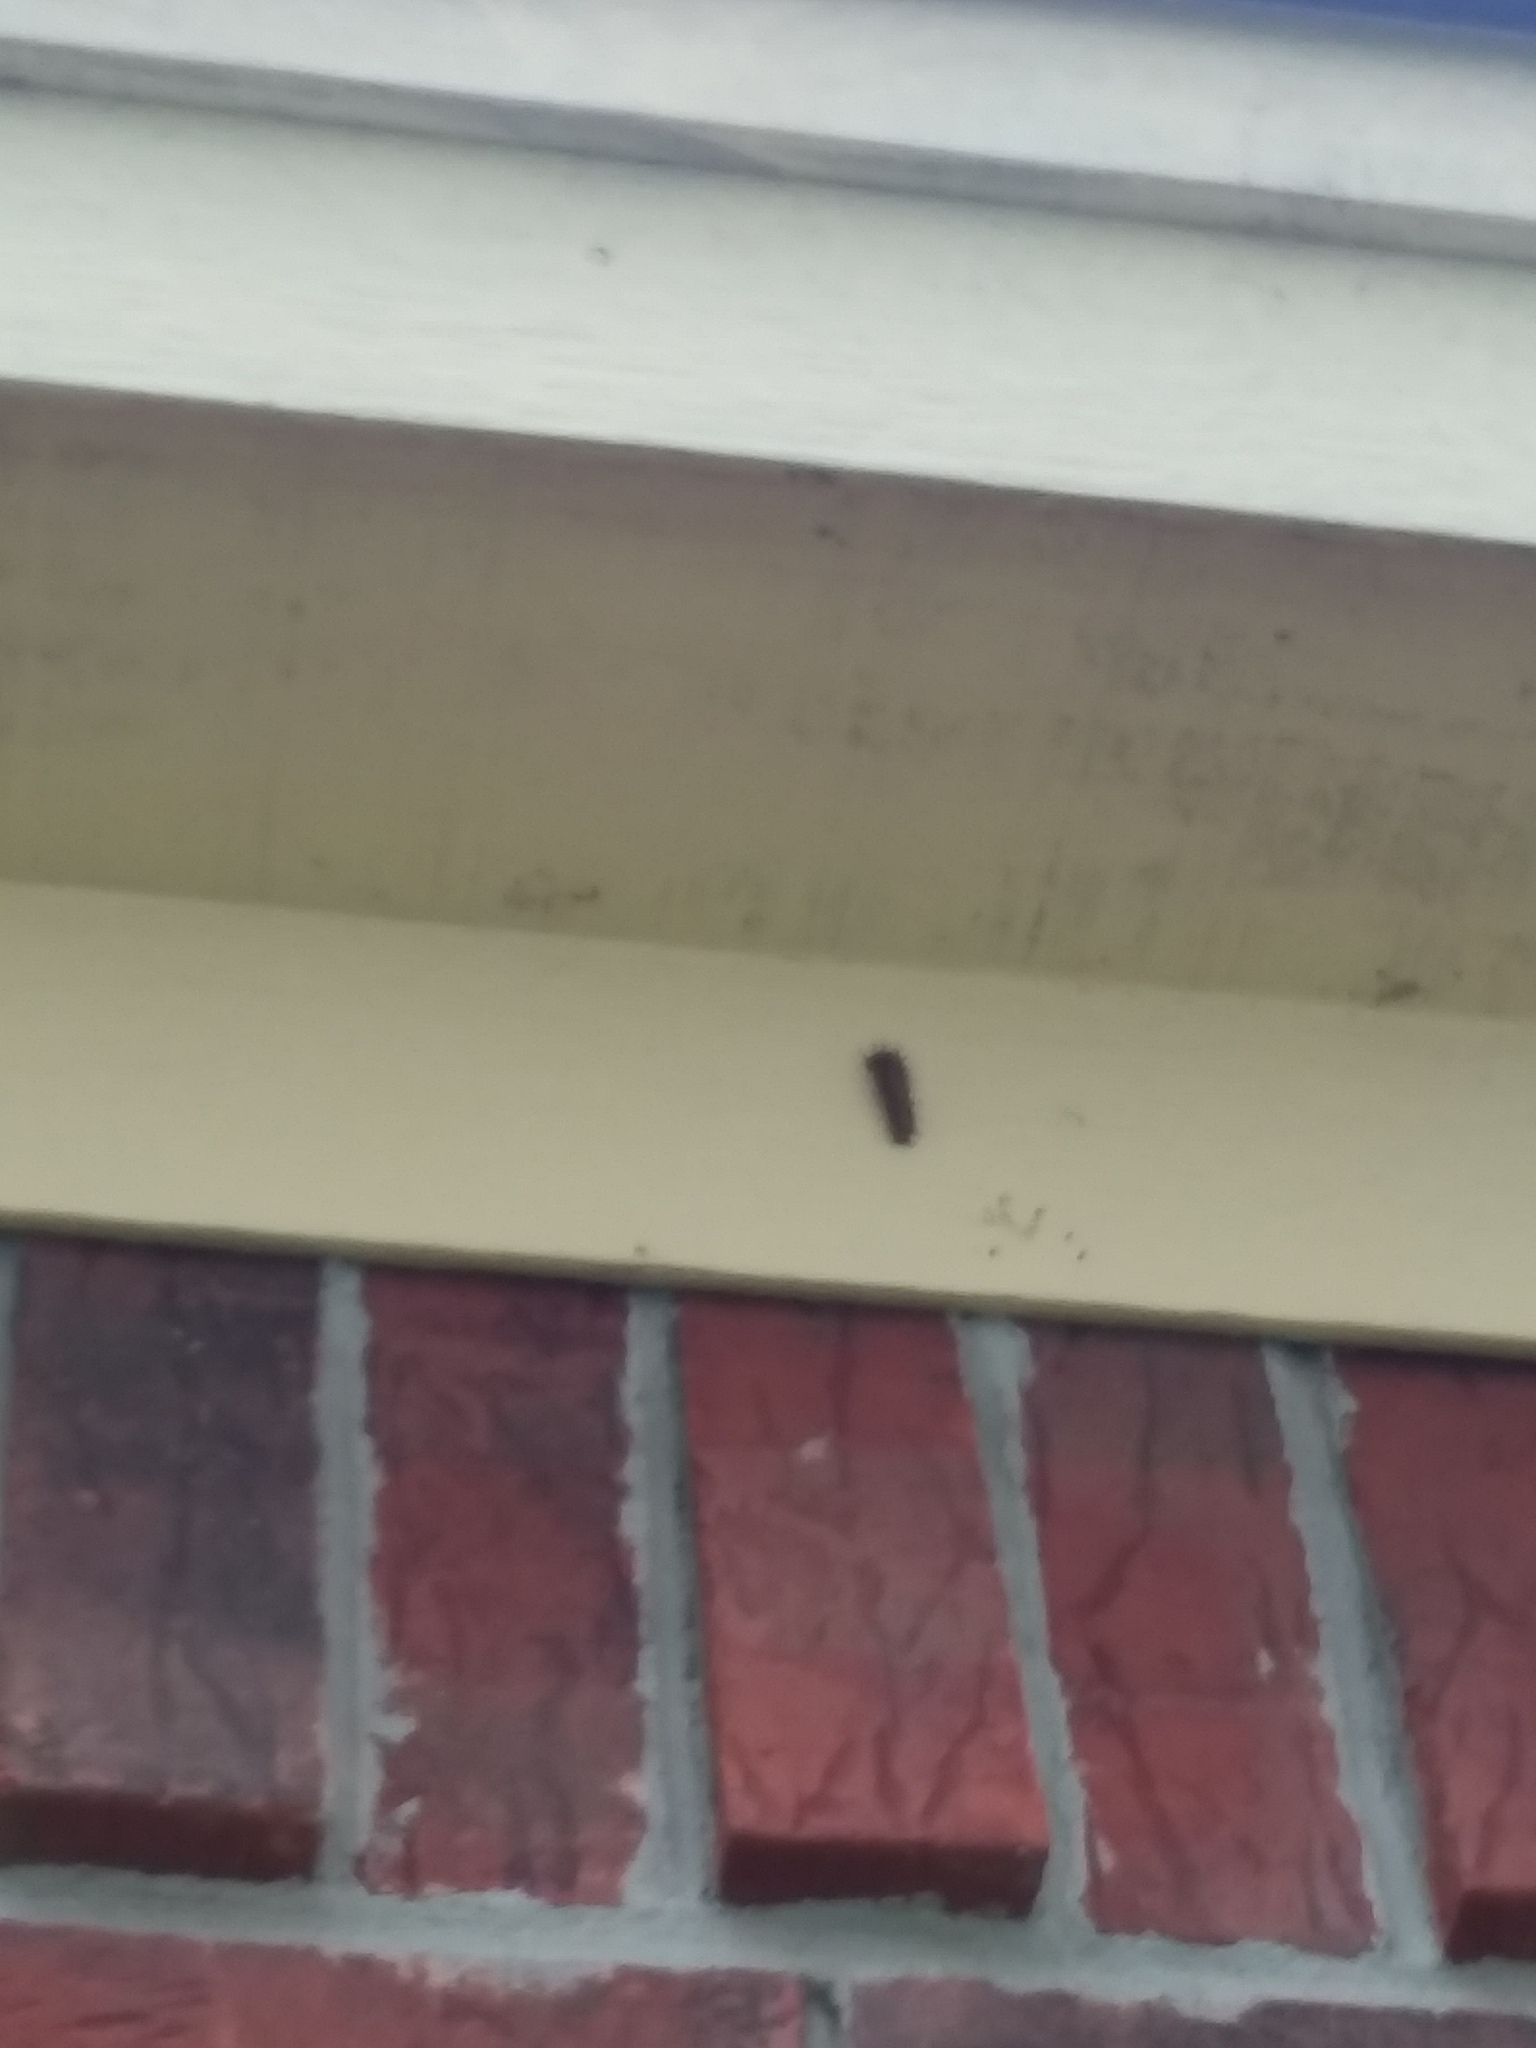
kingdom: Animalia
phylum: Arthropoda
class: Insecta
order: Lepidoptera
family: Nymphalidae
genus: Dione
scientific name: Dione vanillae
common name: Gulf fritillary
